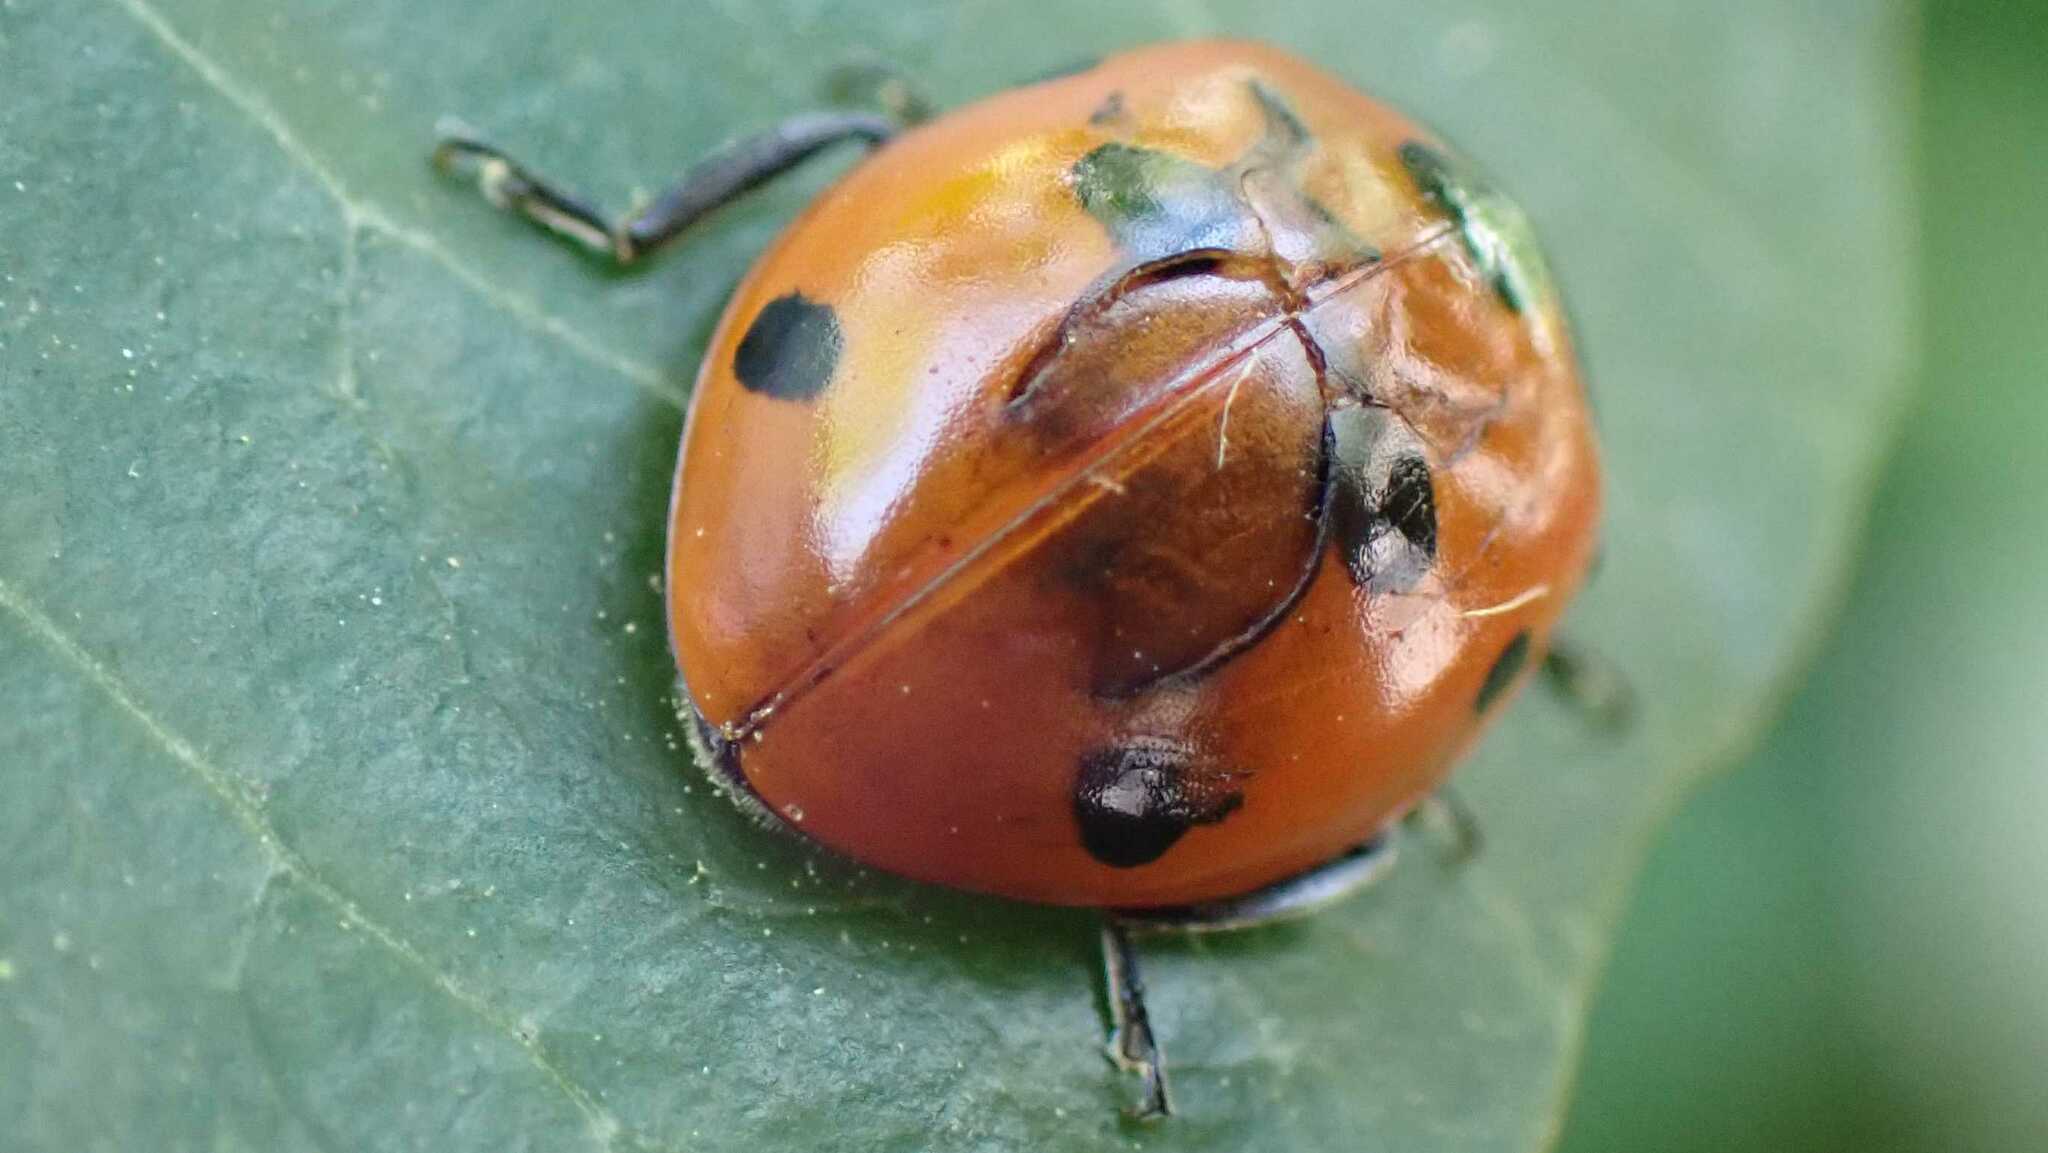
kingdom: Animalia
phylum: Arthropoda
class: Insecta
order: Coleoptera
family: Coccinellidae
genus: Coccinella
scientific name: Coccinella septempunctata
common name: Sevenspotted lady beetle
